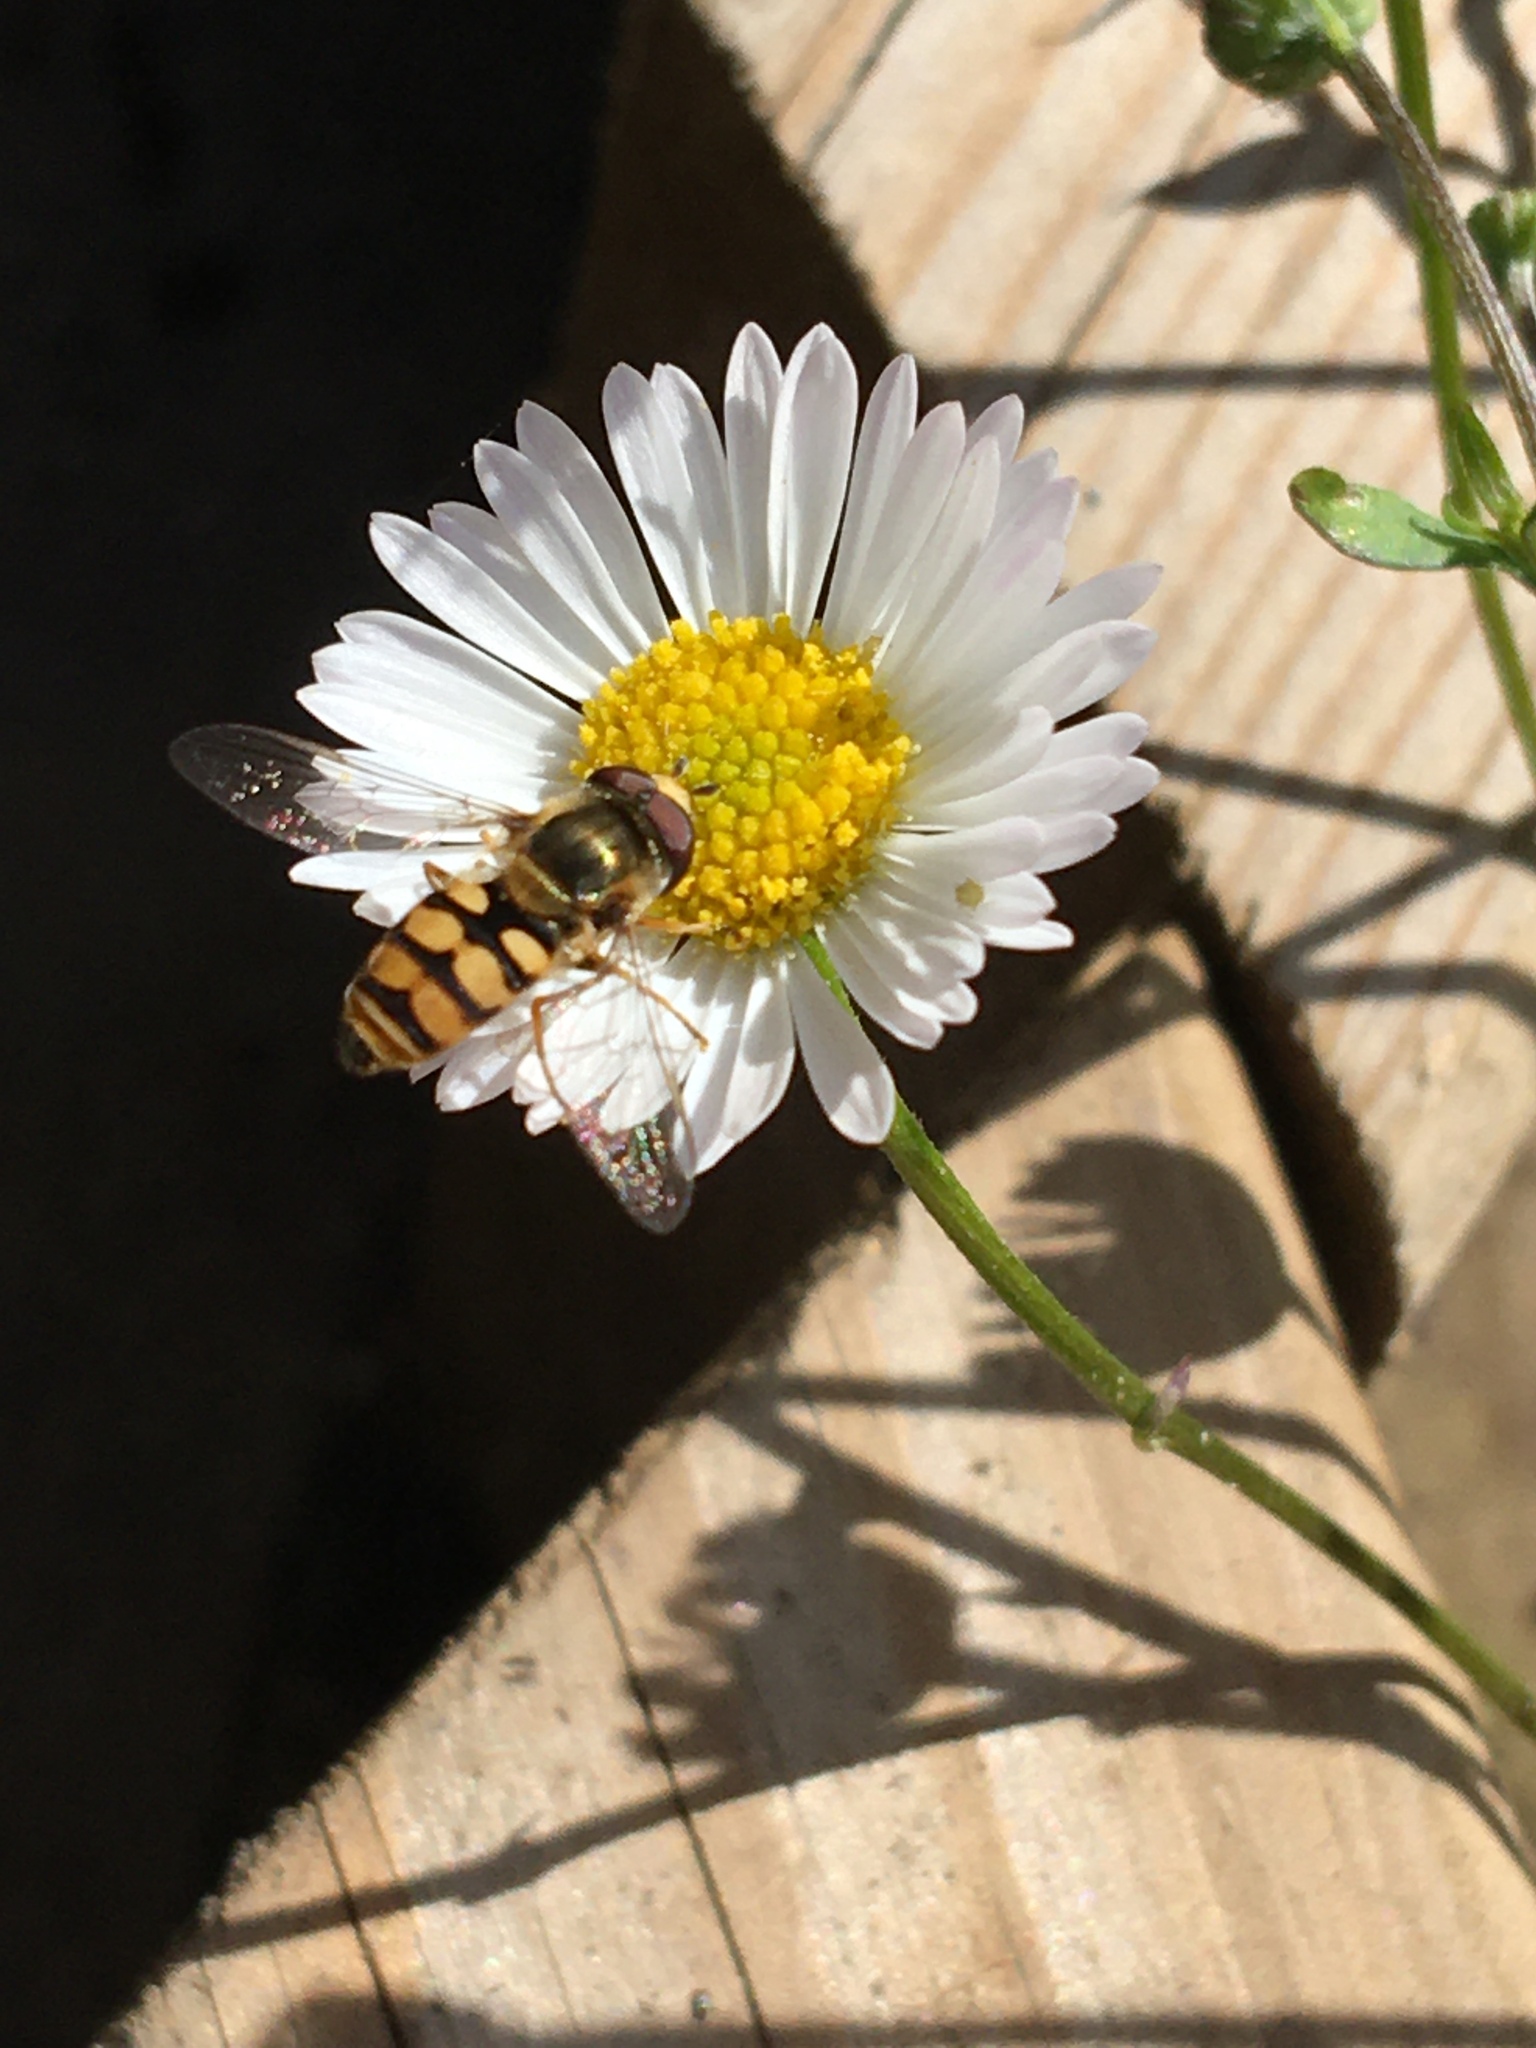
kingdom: Animalia
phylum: Arthropoda
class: Insecta
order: Diptera
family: Syrphidae
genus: Eupeodes
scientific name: Eupeodes corollae
